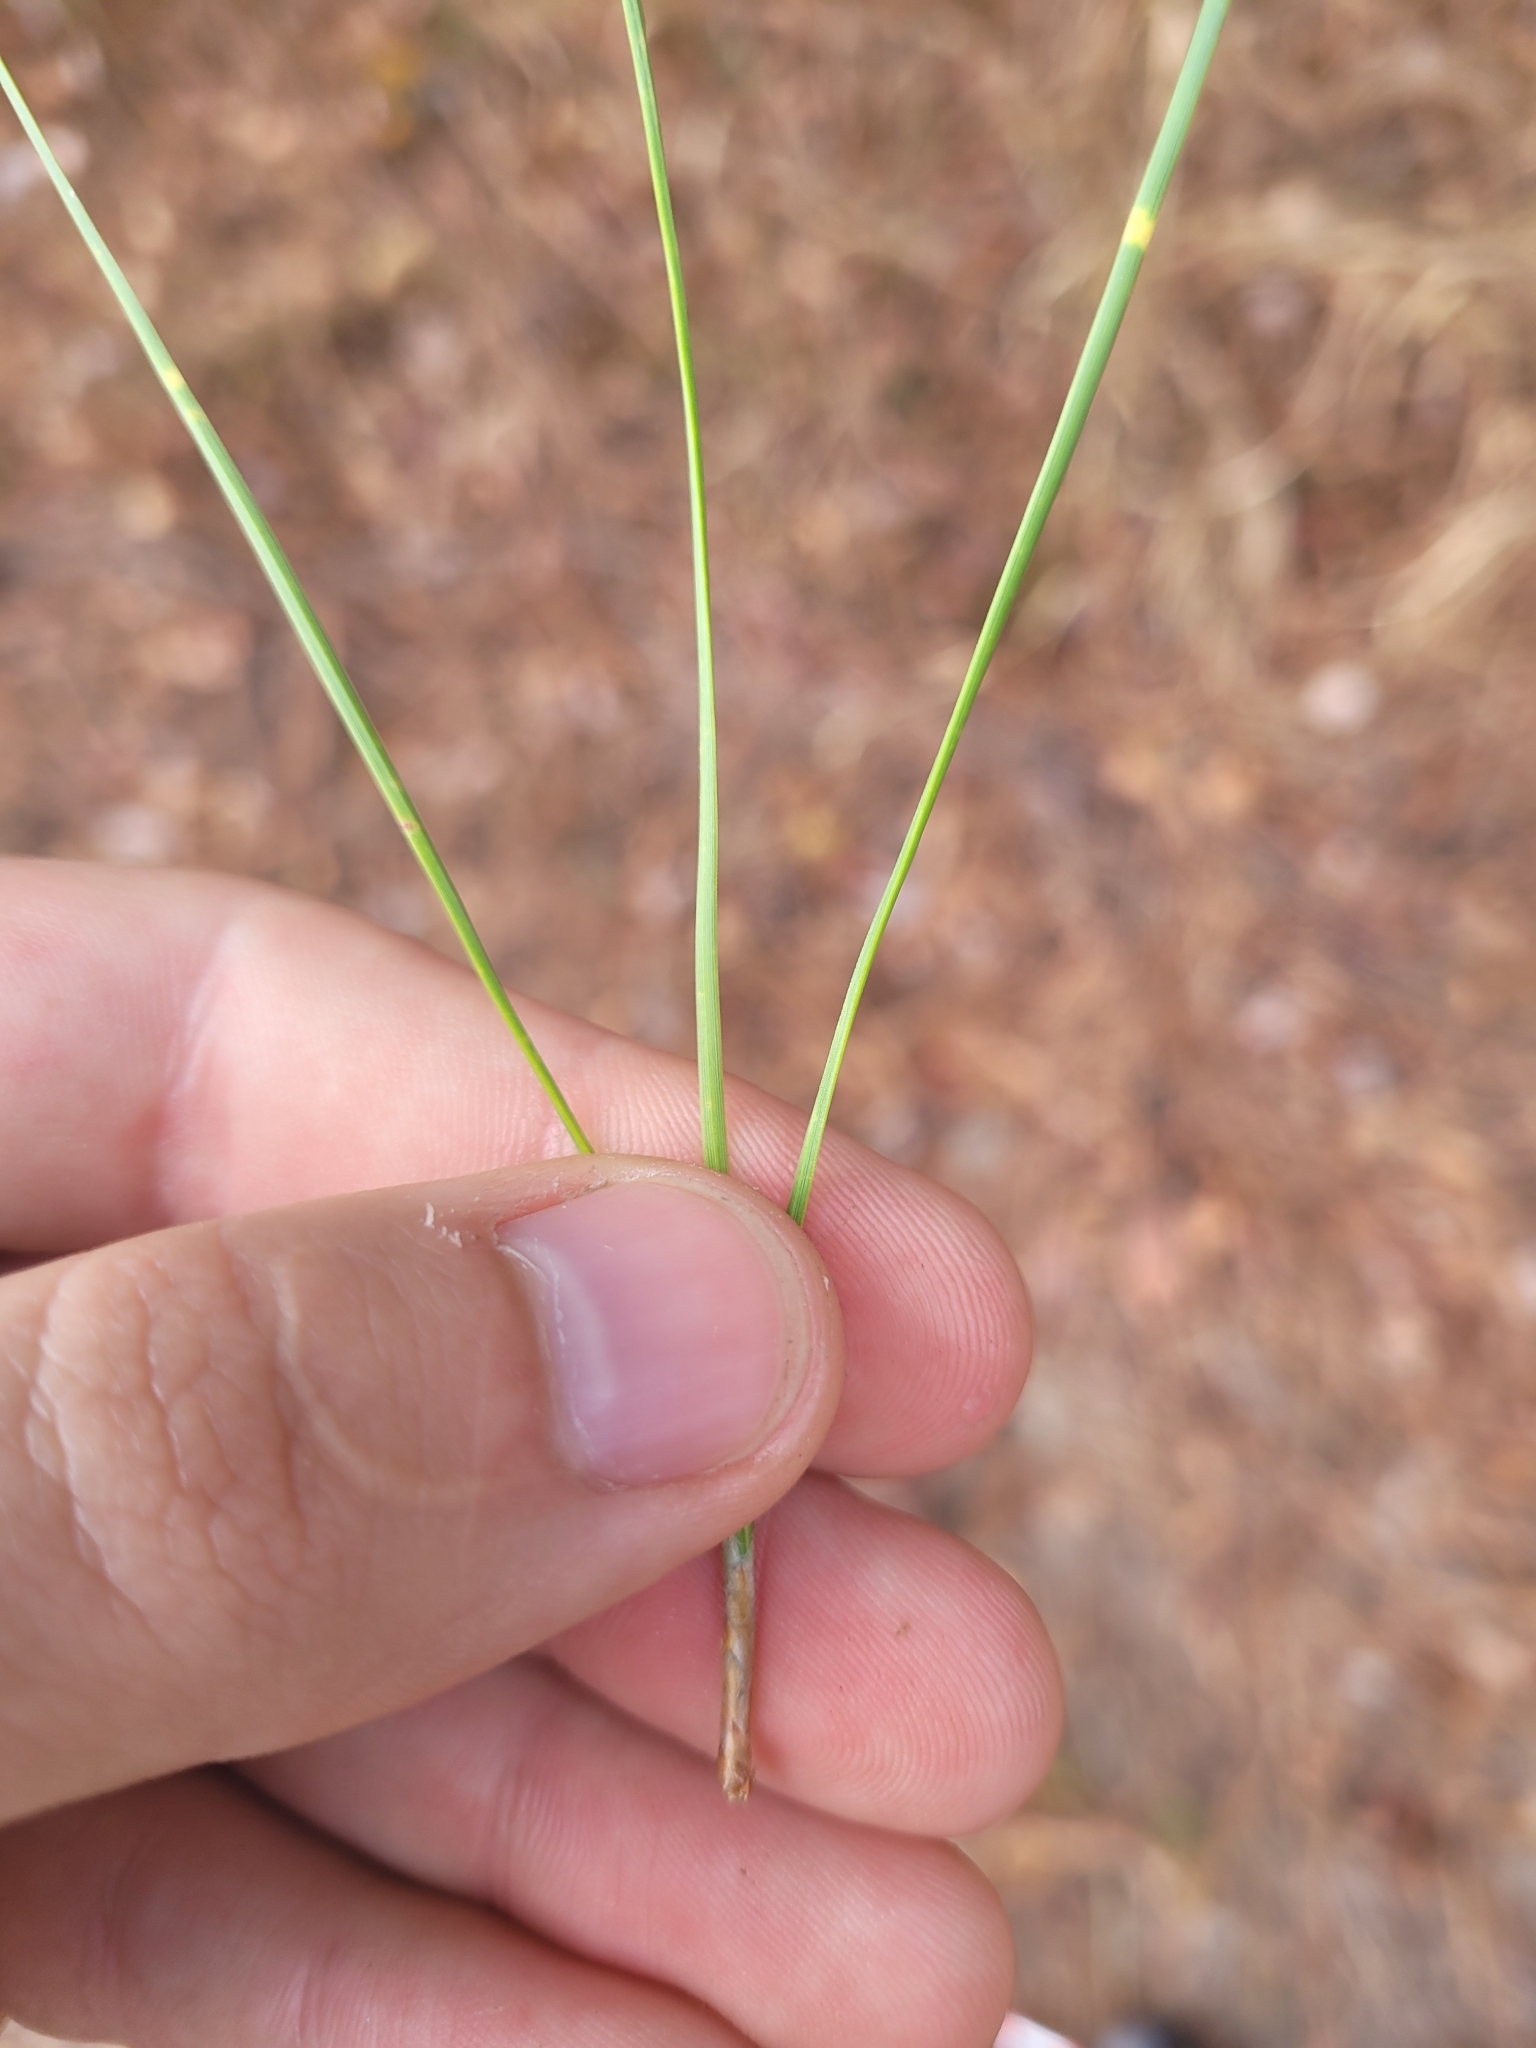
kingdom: Plantae
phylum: Tracheophyta
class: Pinopsida
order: Pinales
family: Pinaceae
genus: Pinus
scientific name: Pinus taeda
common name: Loblolly pine
